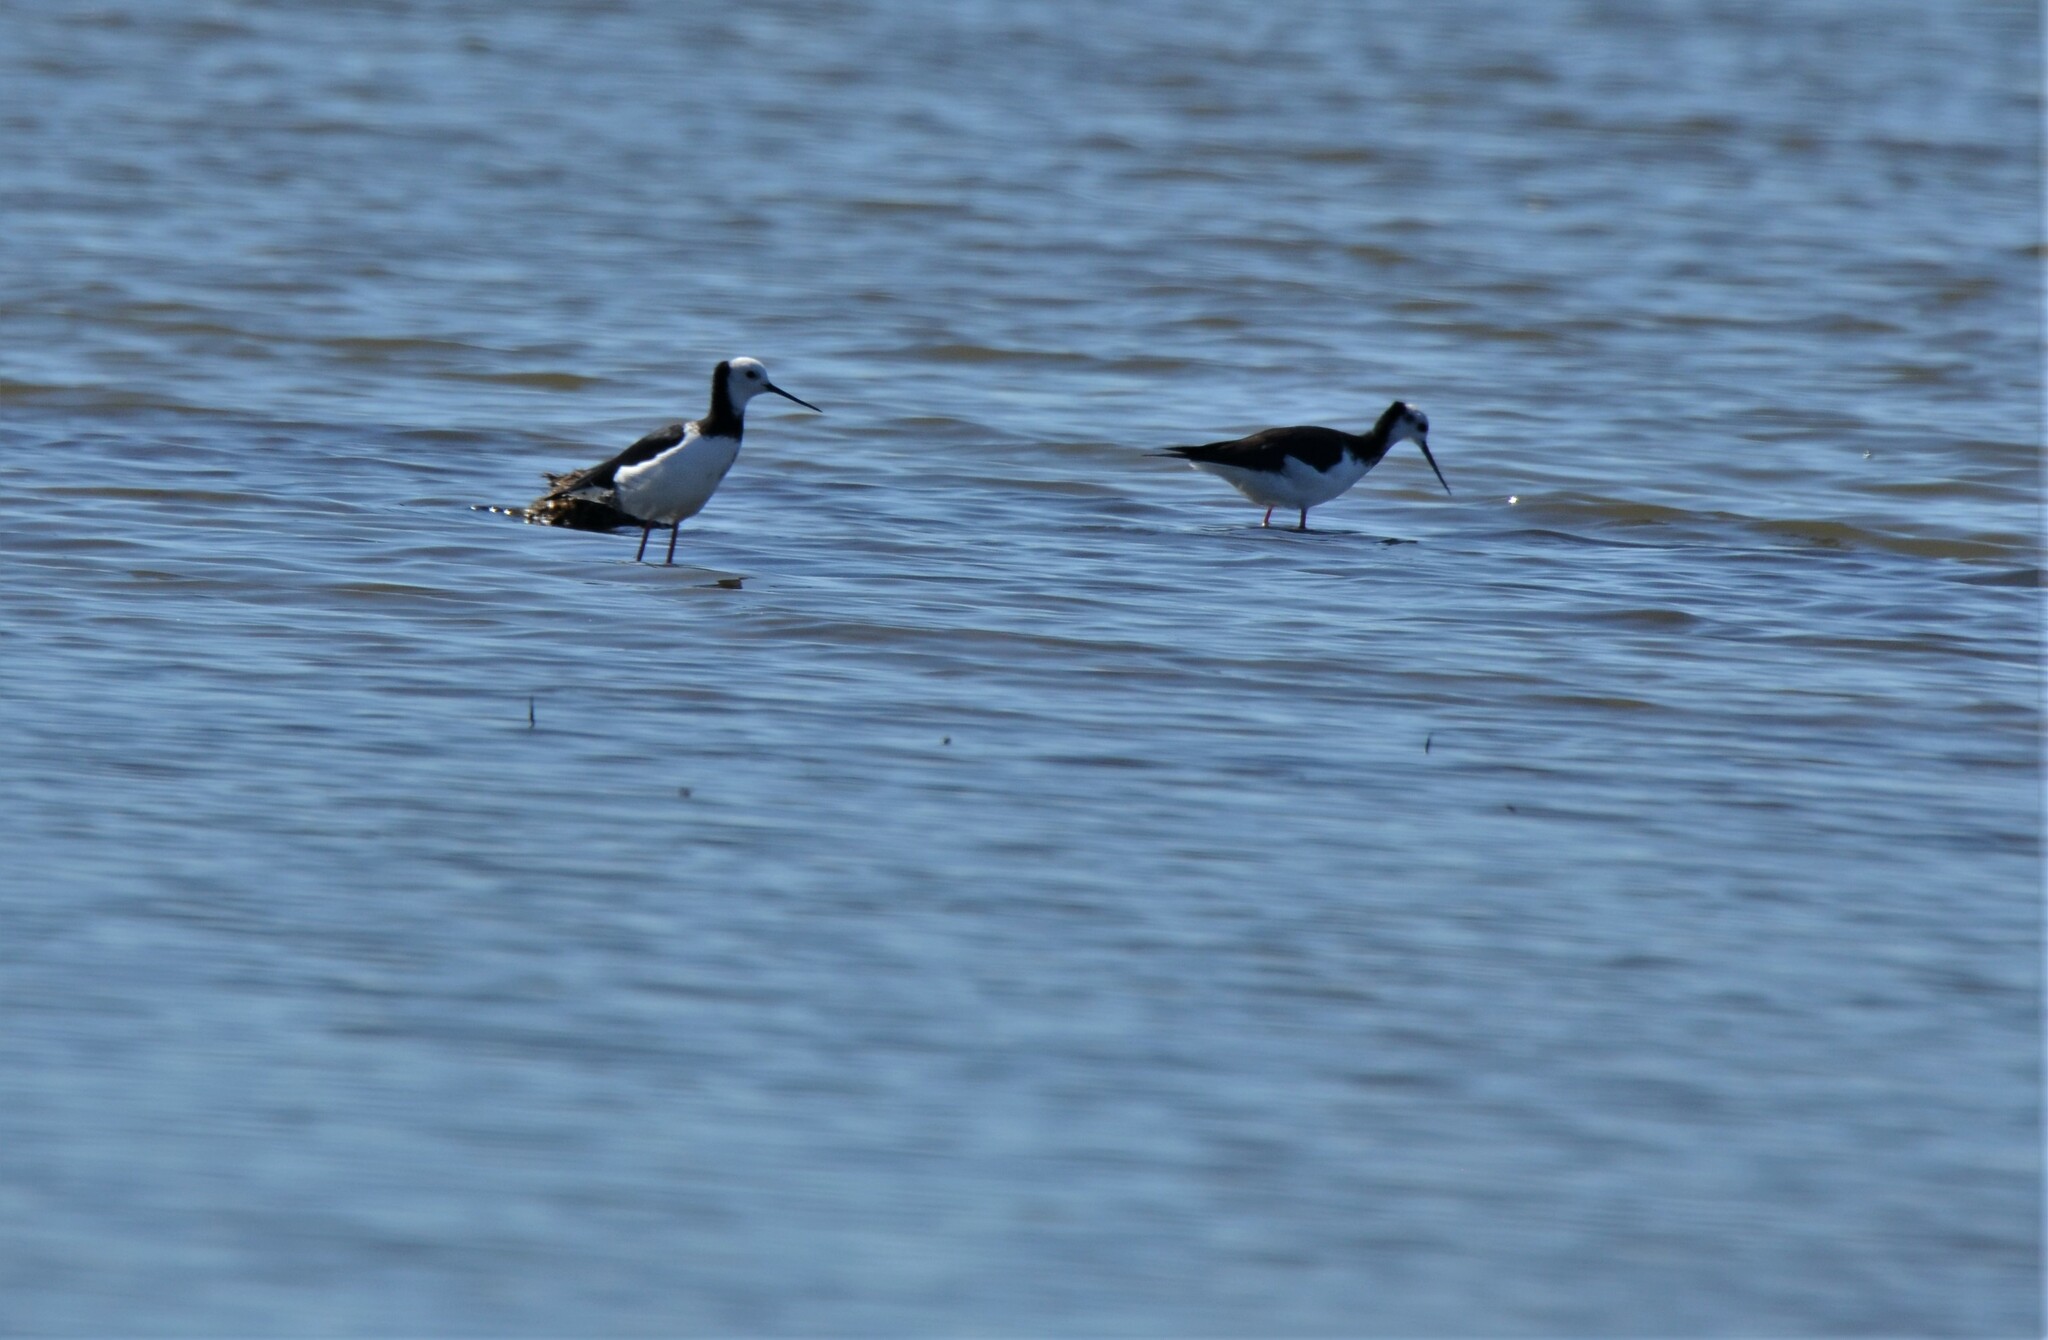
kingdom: Animalia
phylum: Chordata
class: Aves
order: Charadriiformes
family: Recurvirostridae
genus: Himantopus
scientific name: Himantopus leucocephalus
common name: White-headed stilt
